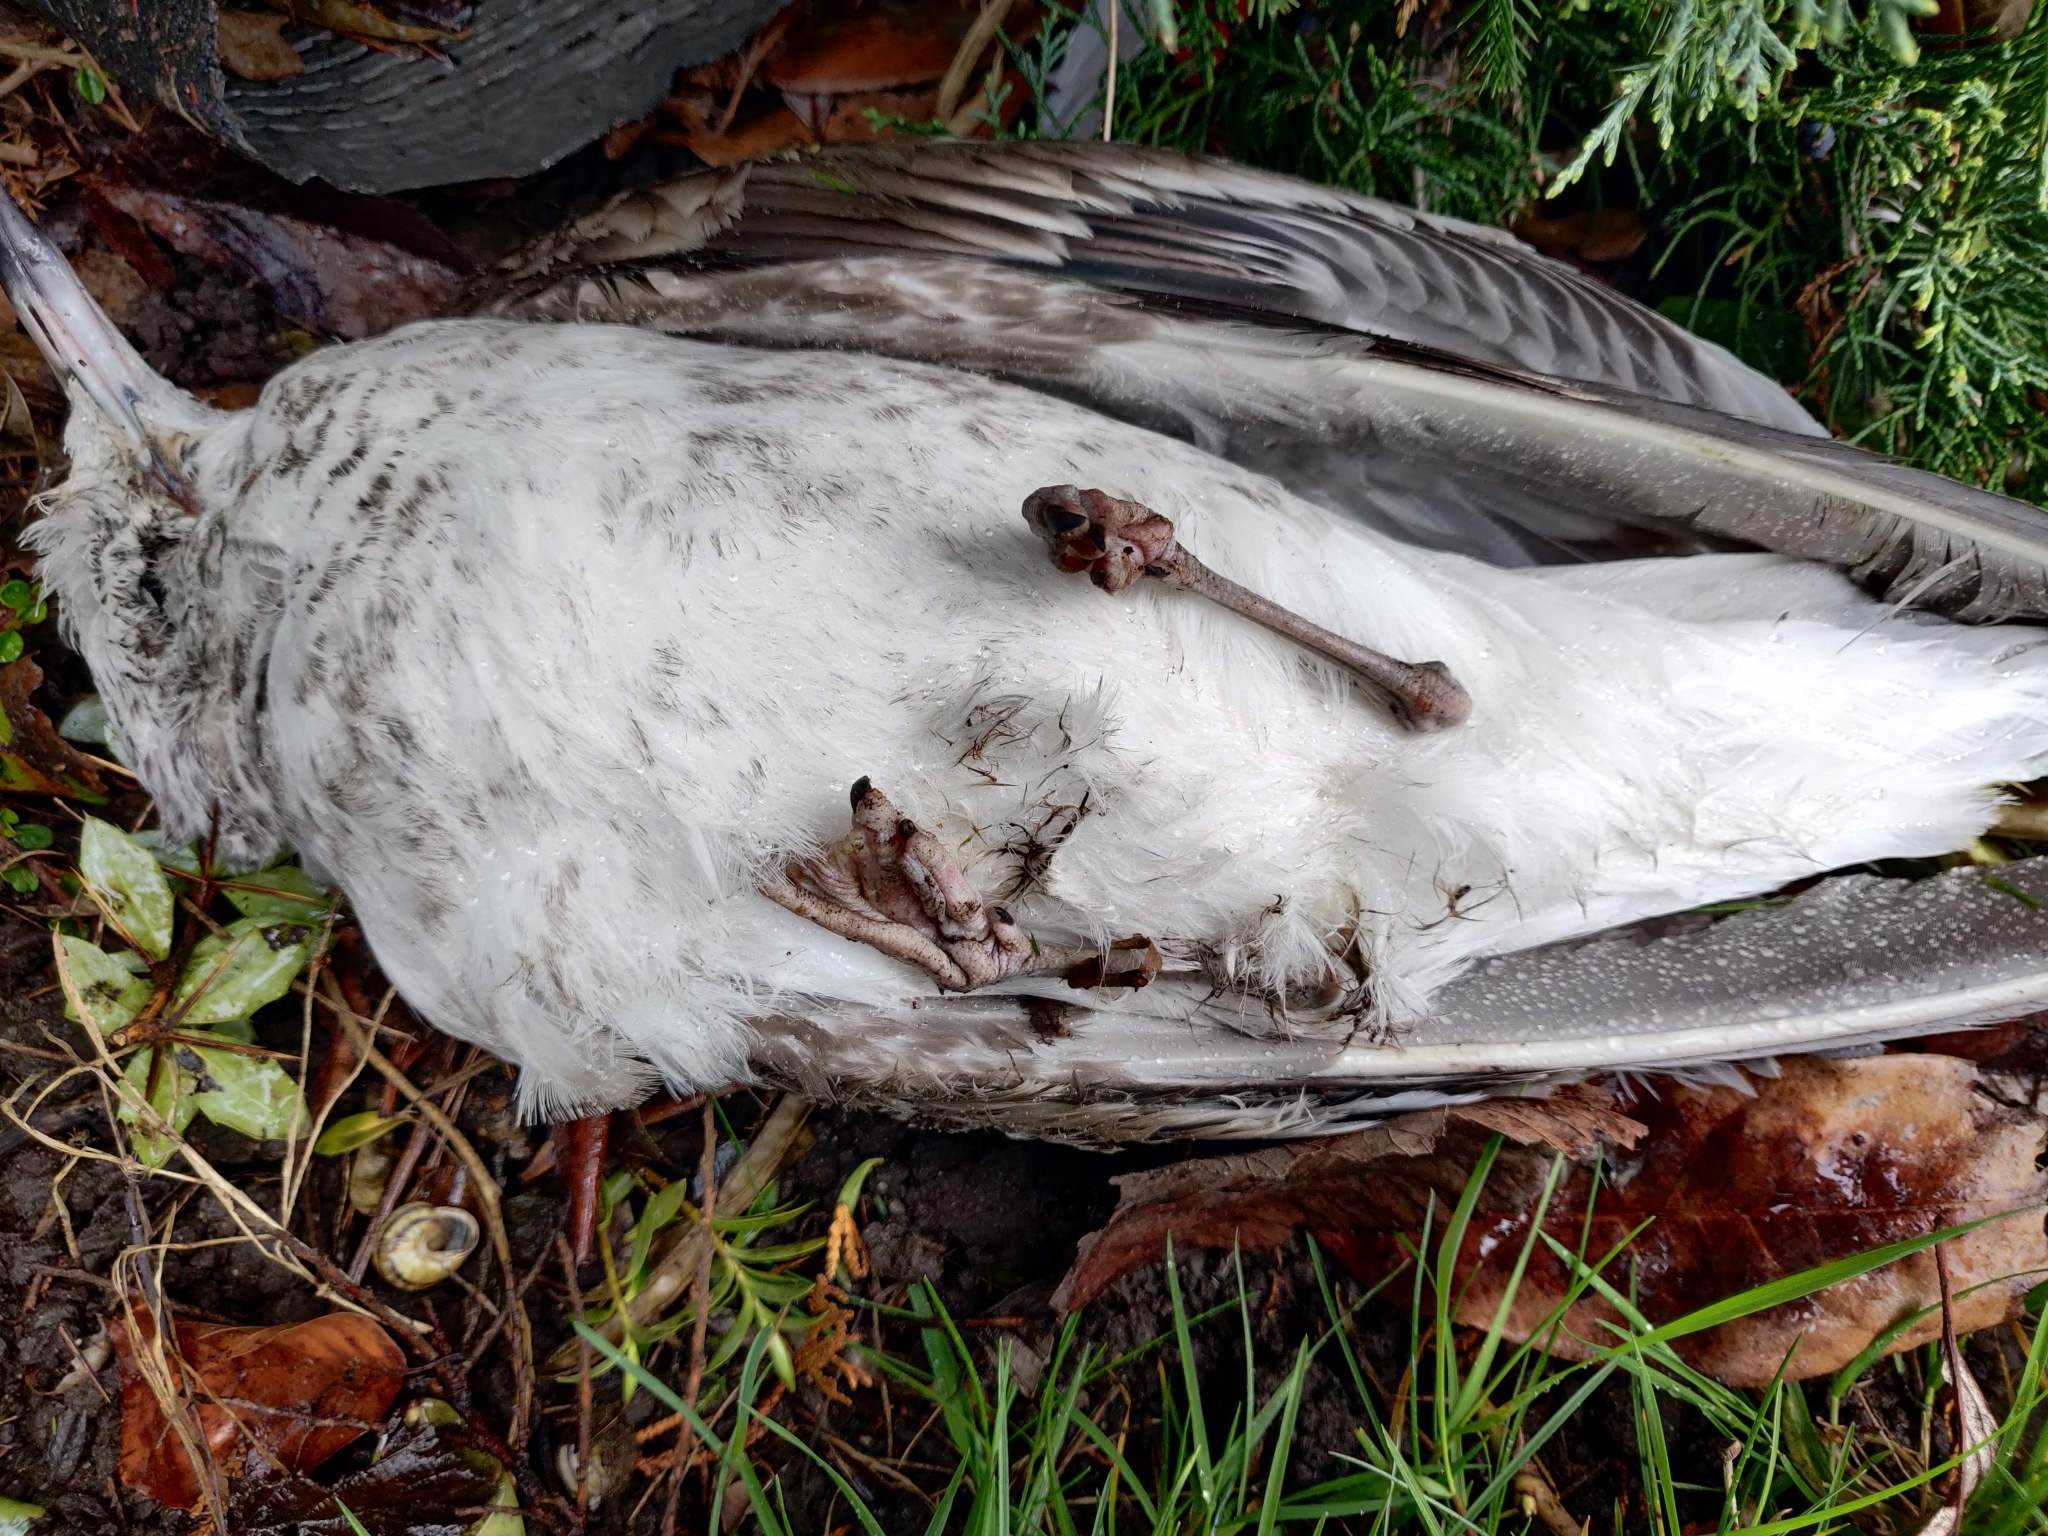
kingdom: Animalia
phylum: Chordata
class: Aves
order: Charadriiformes
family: Laridae
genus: Larus
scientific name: Larus canus
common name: Mew gull
